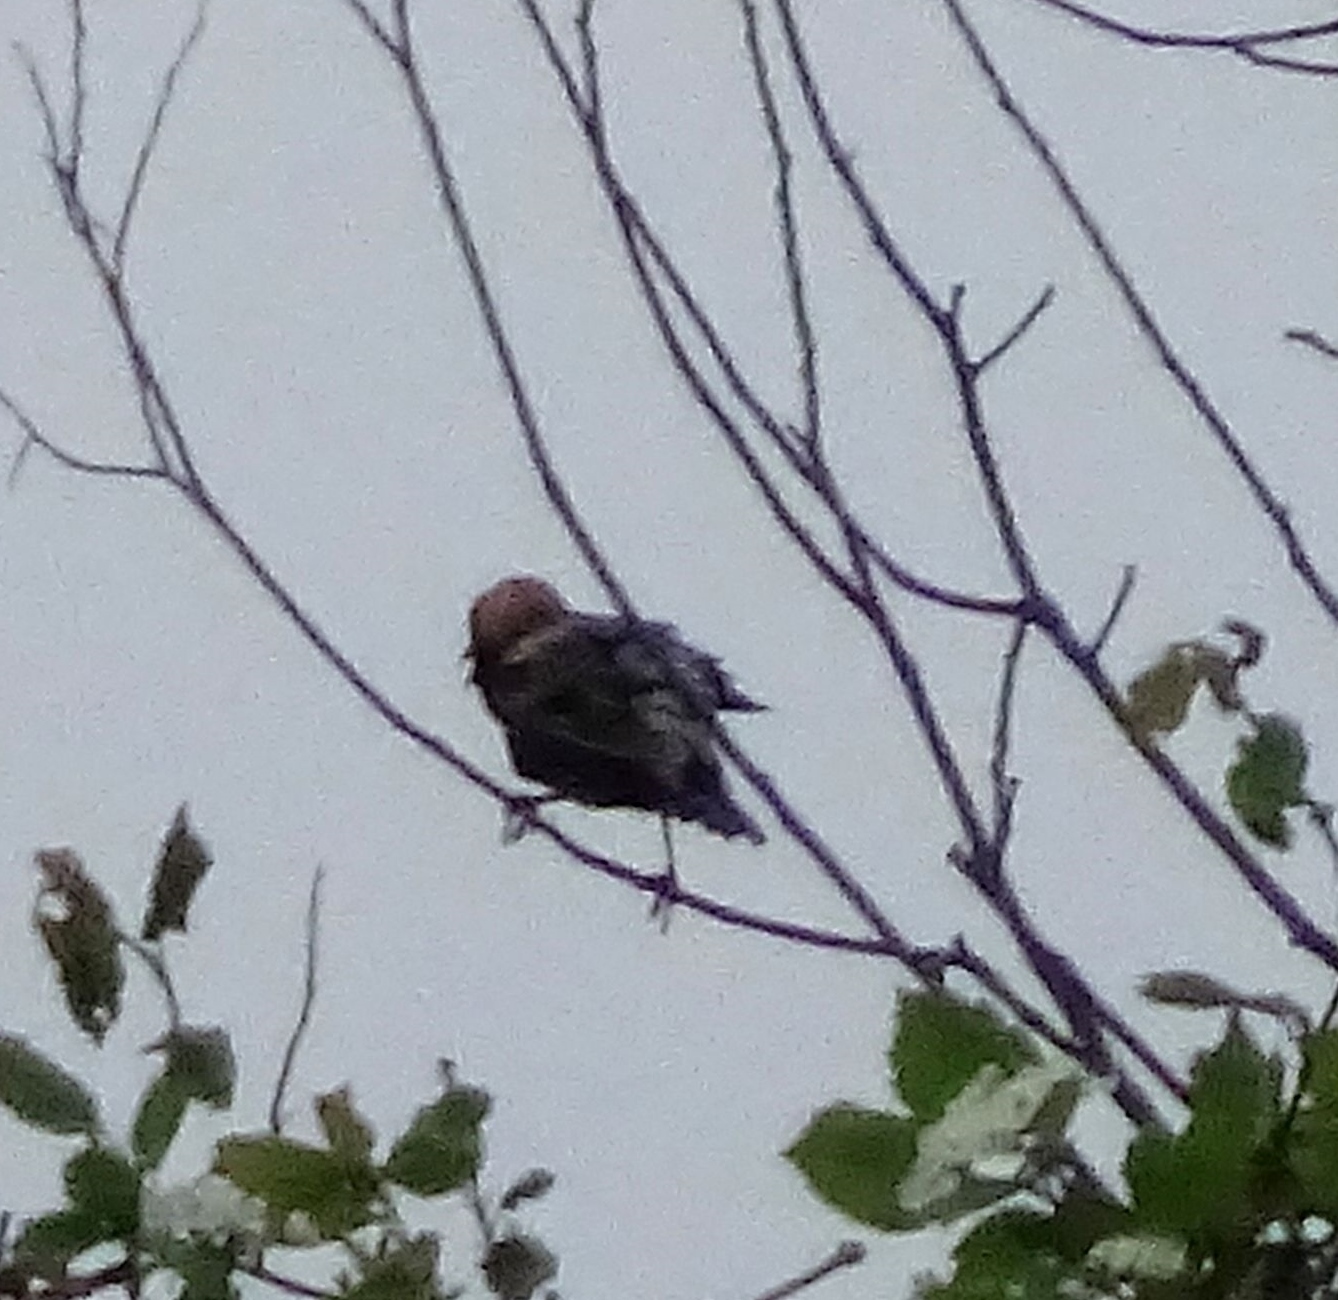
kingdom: Animalia
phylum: Chordata
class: Aves
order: Passeriformes
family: Icteridae
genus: Dolichonyx
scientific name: Dolichonyx oryzivorus
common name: Bobolink
